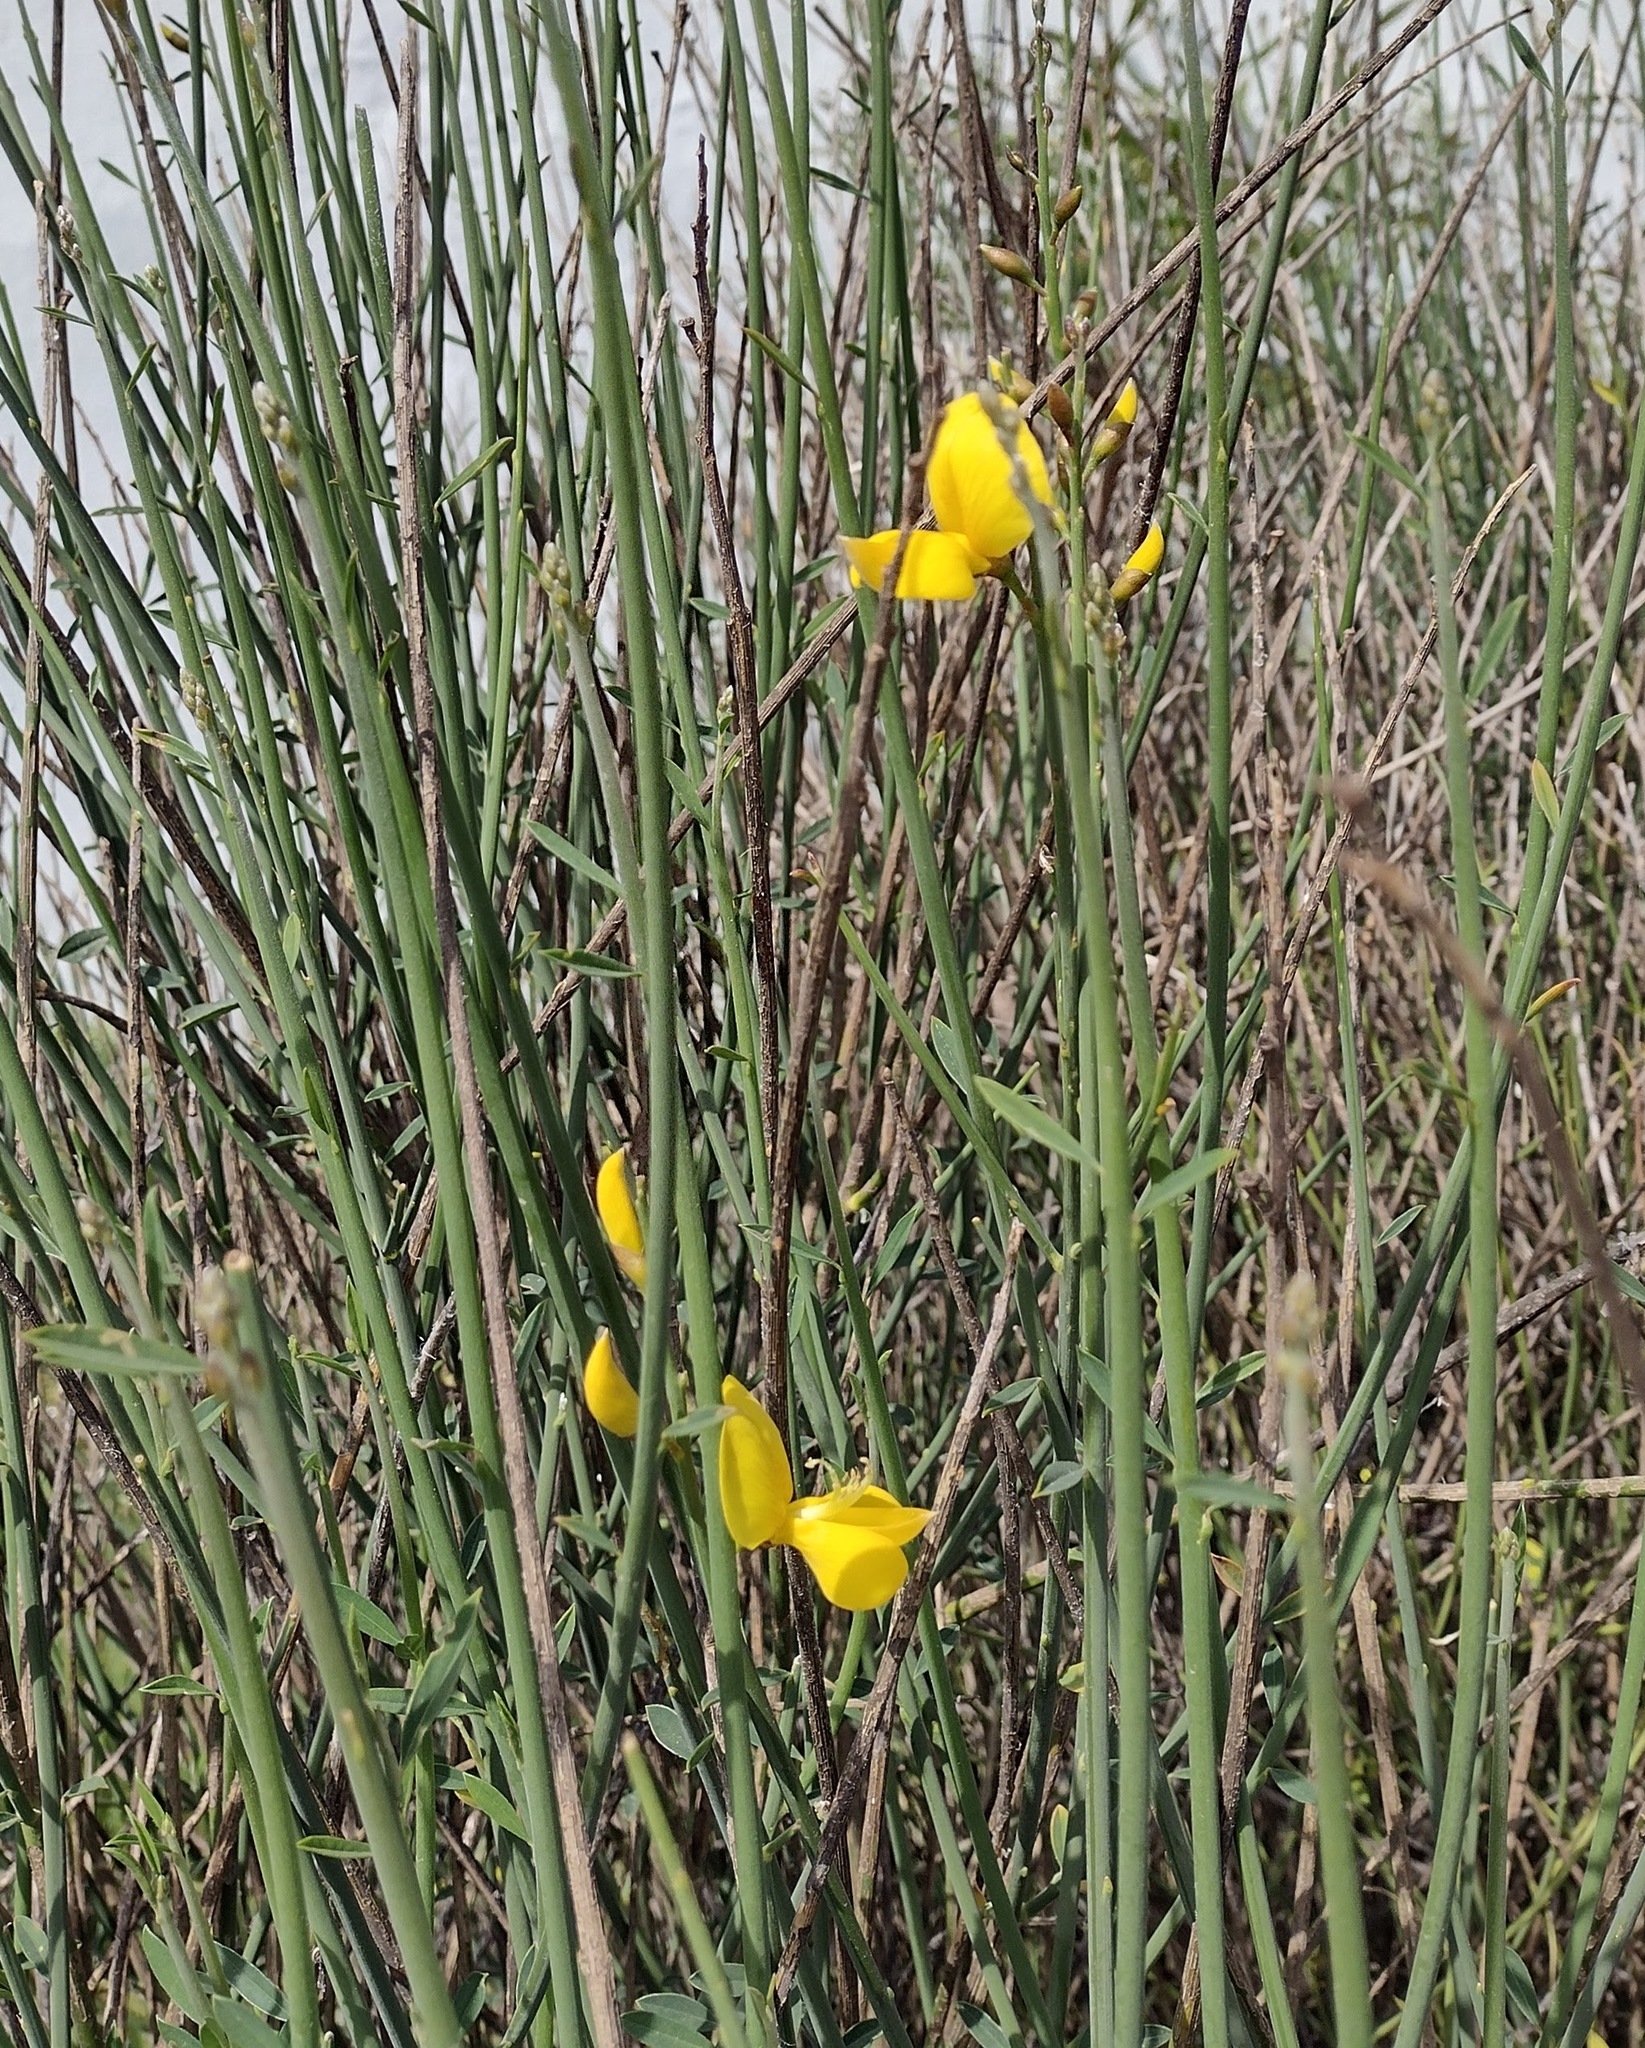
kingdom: Plantae
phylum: Tracheophyta
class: Magnoliopsida
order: Fabales
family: Fabaceae
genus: Spartium
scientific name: Spartium junceum
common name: Spanish broom
